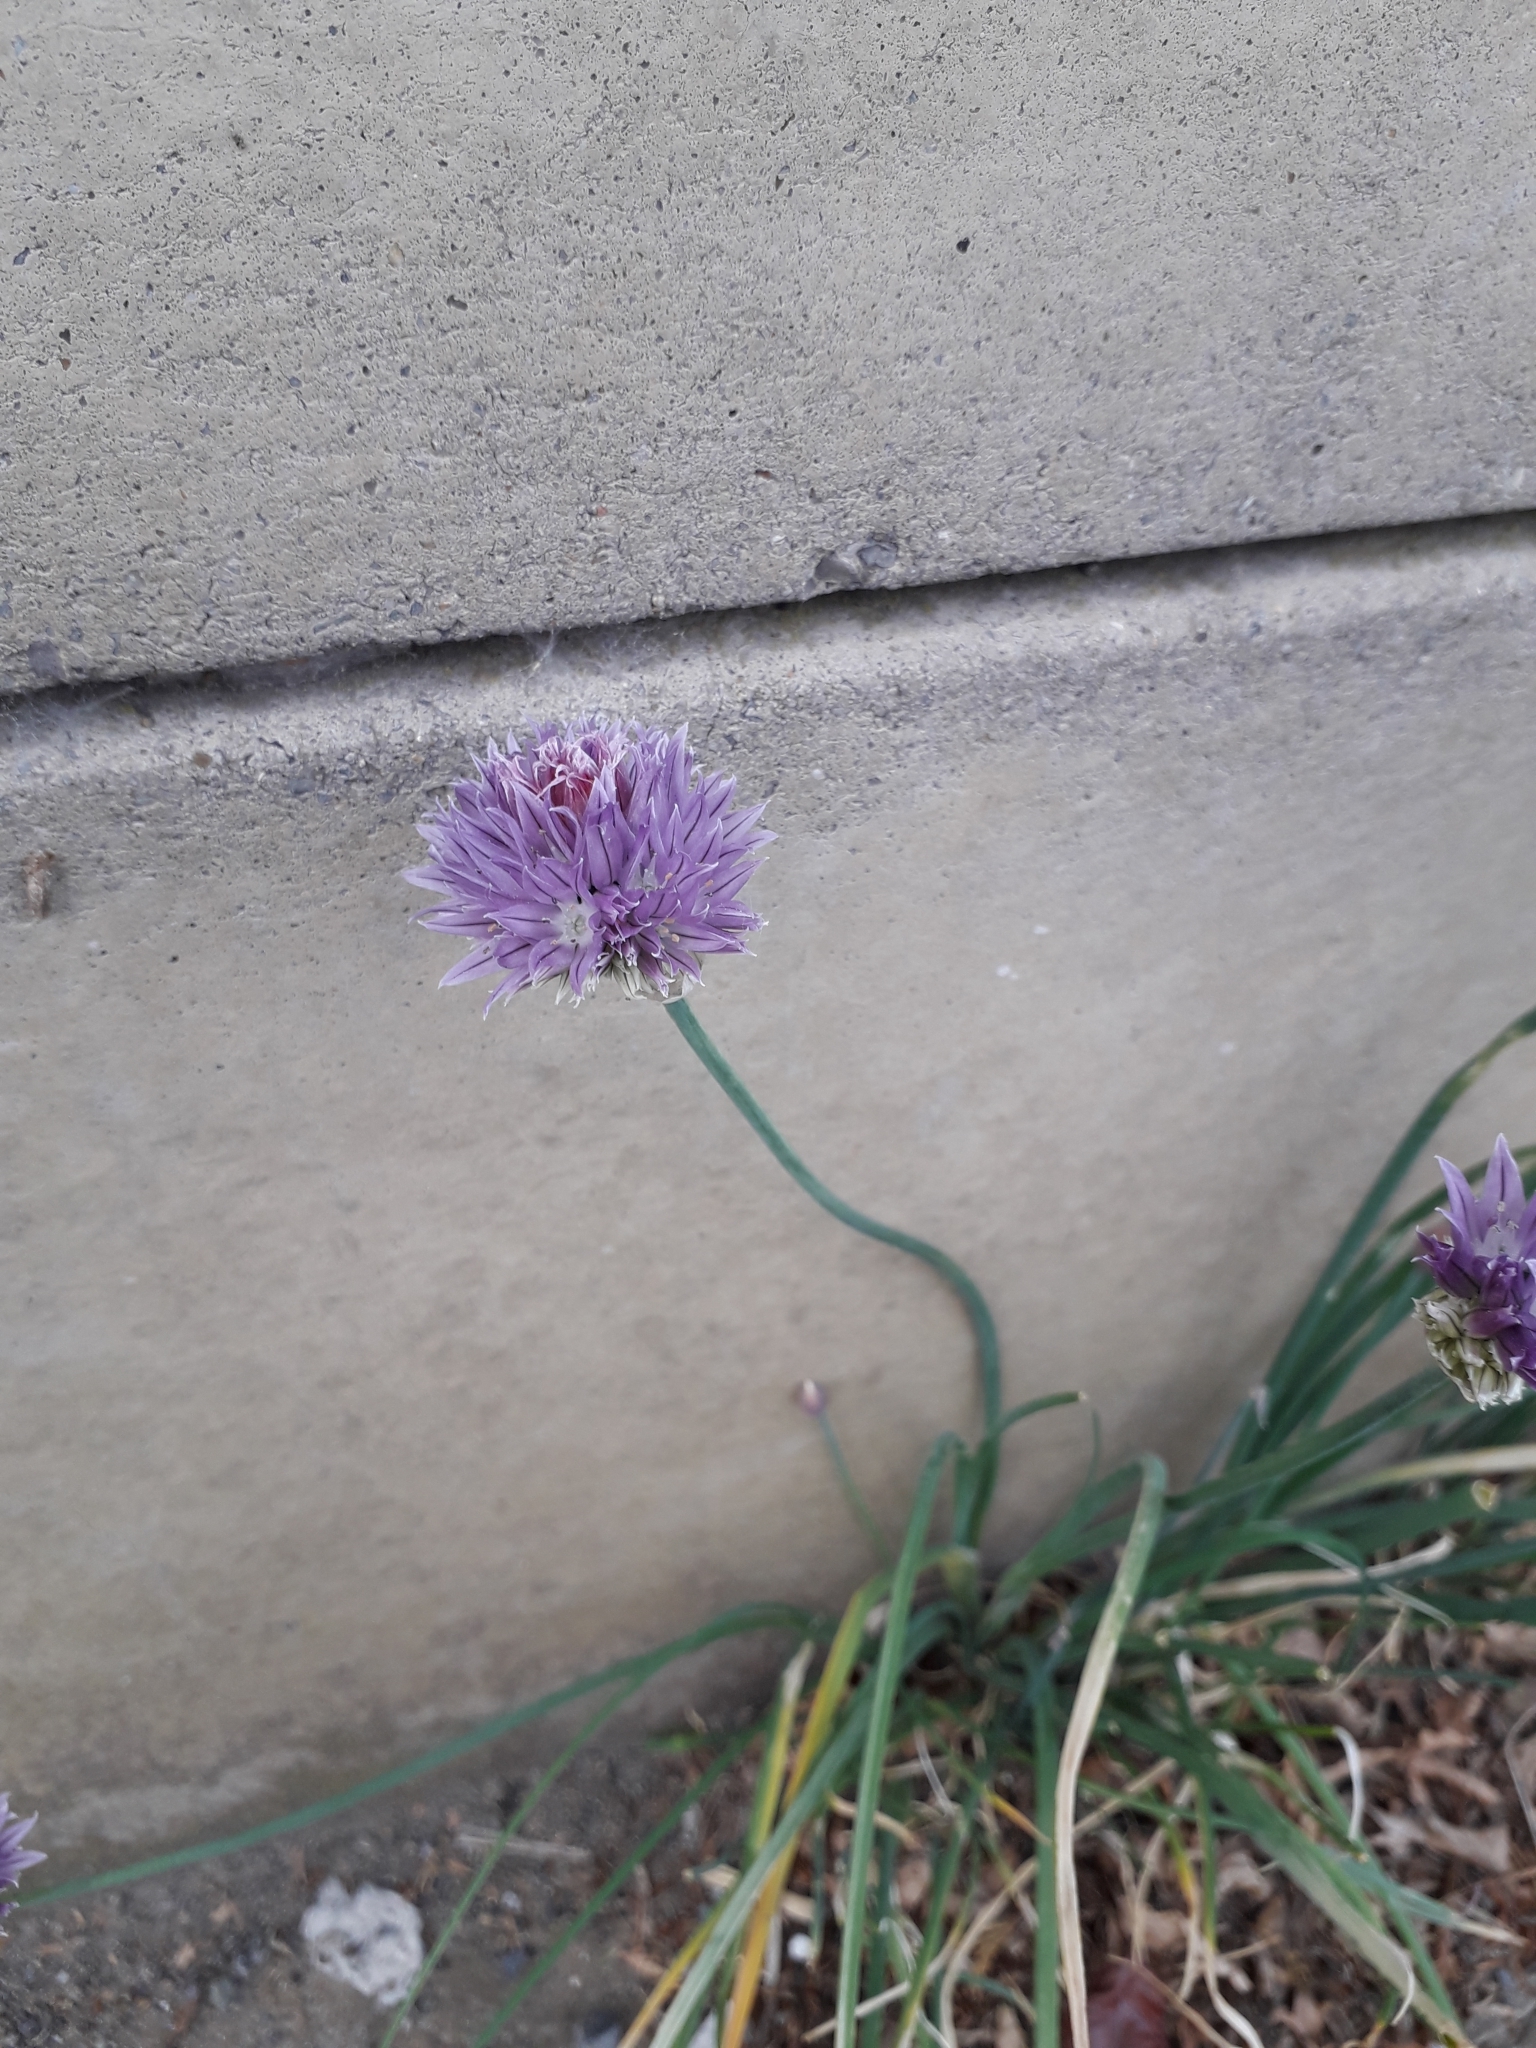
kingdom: Plantae
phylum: Tracheophyta
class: Liliopsida
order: Asparagales
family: Amaryllidaceae
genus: Allium
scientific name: Allium schoenoprasum
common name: Chives
